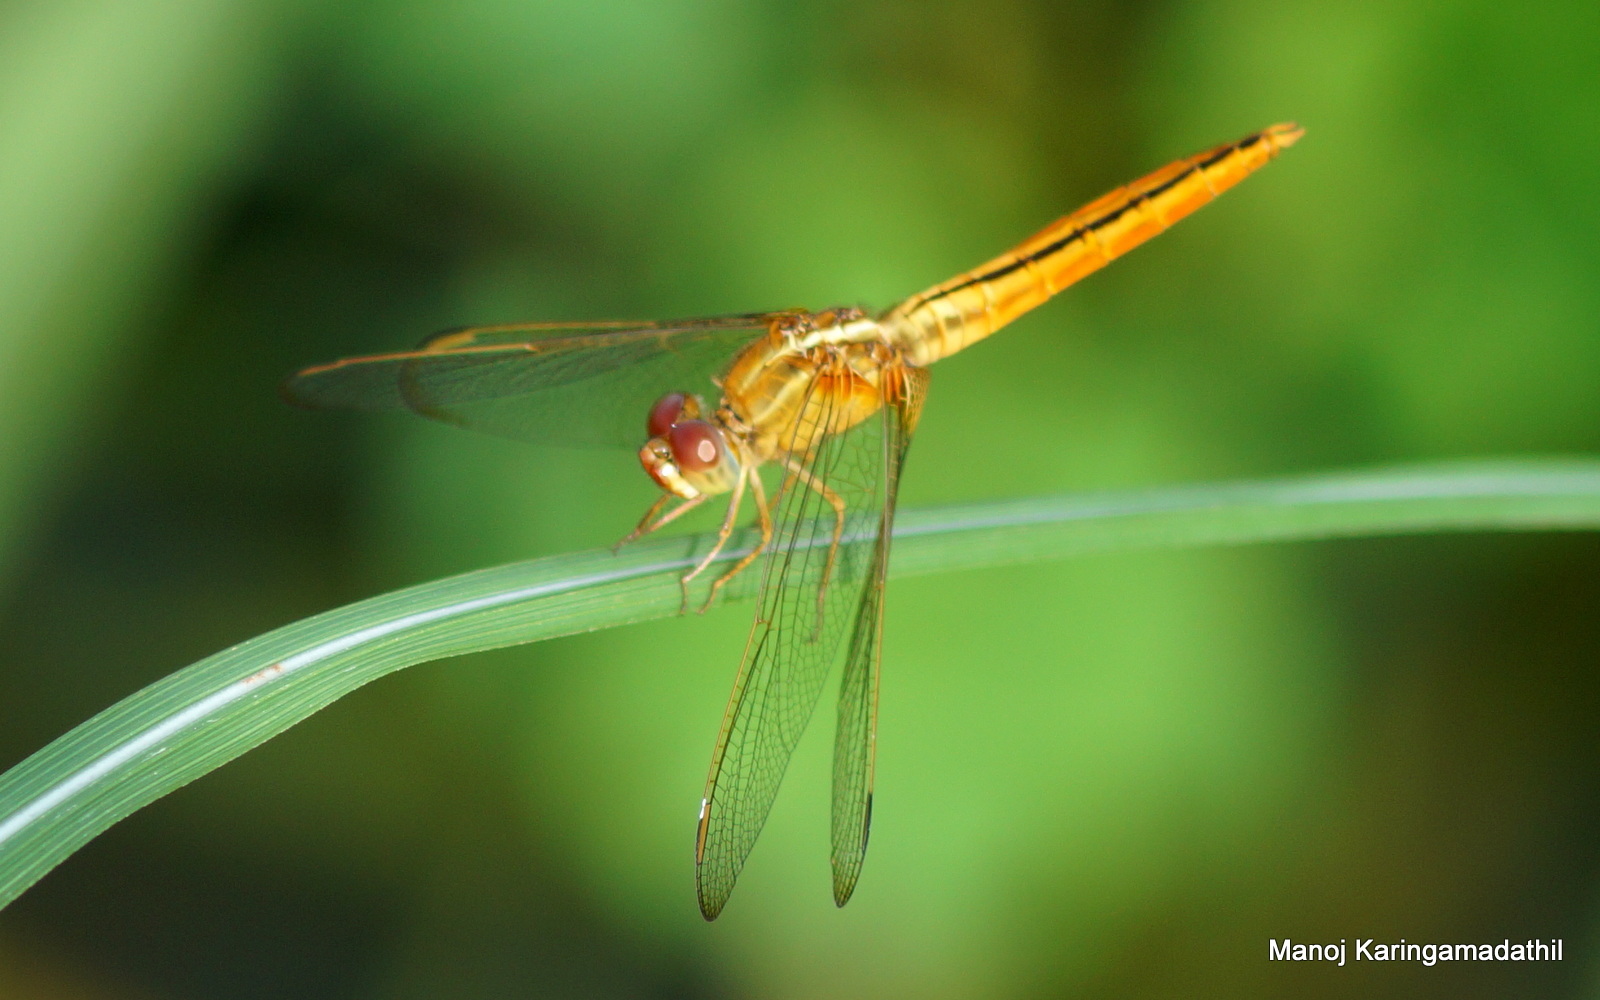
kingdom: Animalia
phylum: Arthropoda
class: Insecta
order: Odonata
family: Libellulidae
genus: Crocothemis
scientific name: Crocothemis servilia
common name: Scarlet skimmer
